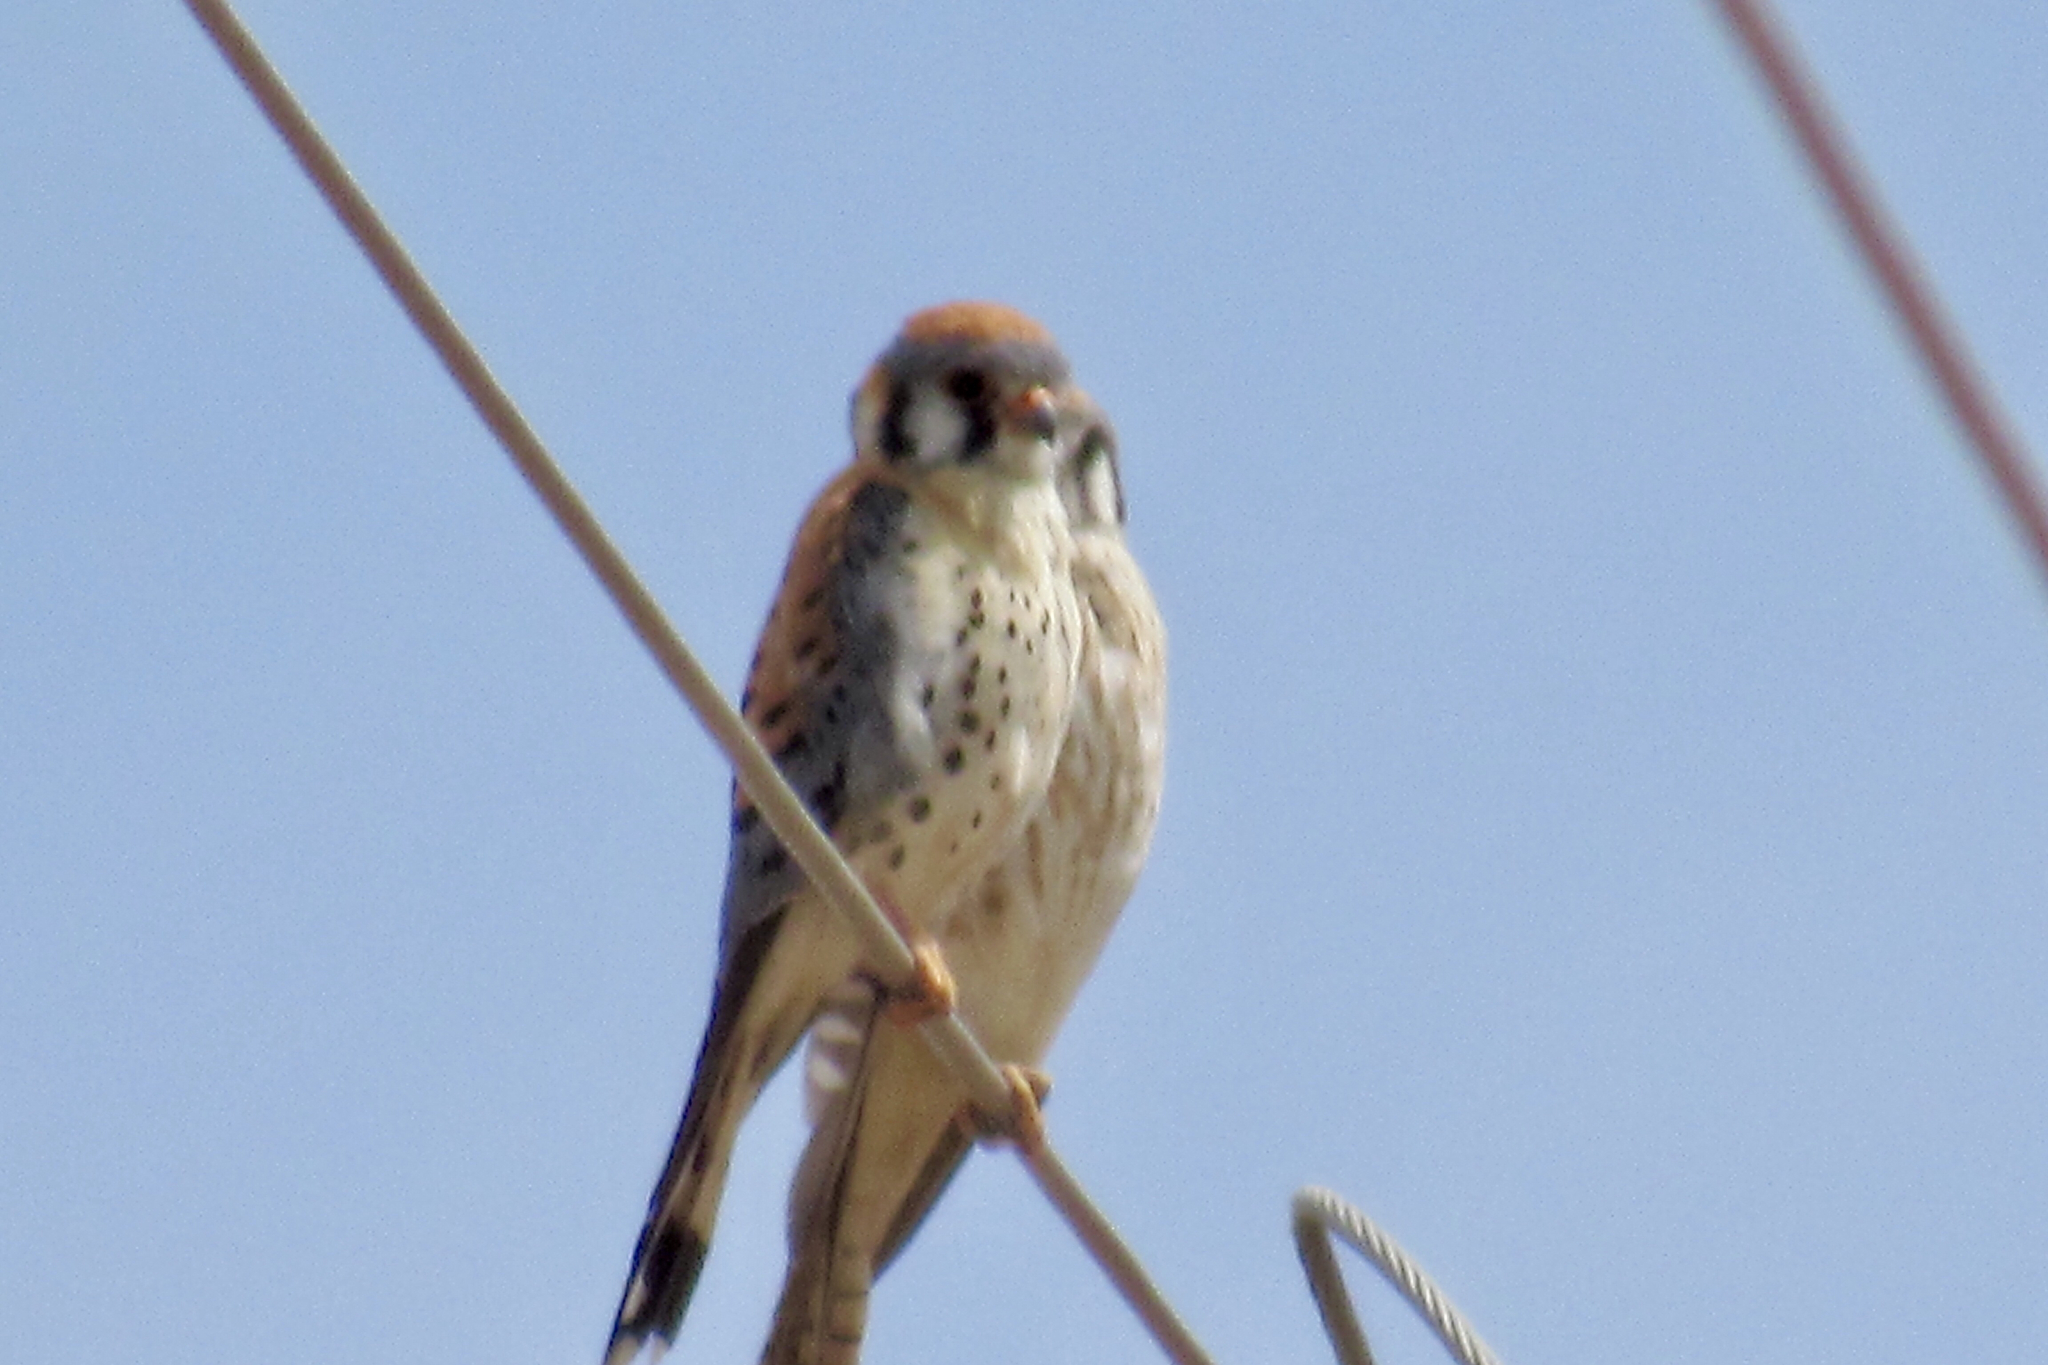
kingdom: Animalia
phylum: Chordata
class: Aves
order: Falconiformes
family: Falconidae
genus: Falco
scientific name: Falco sparverius
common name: American kestrel
